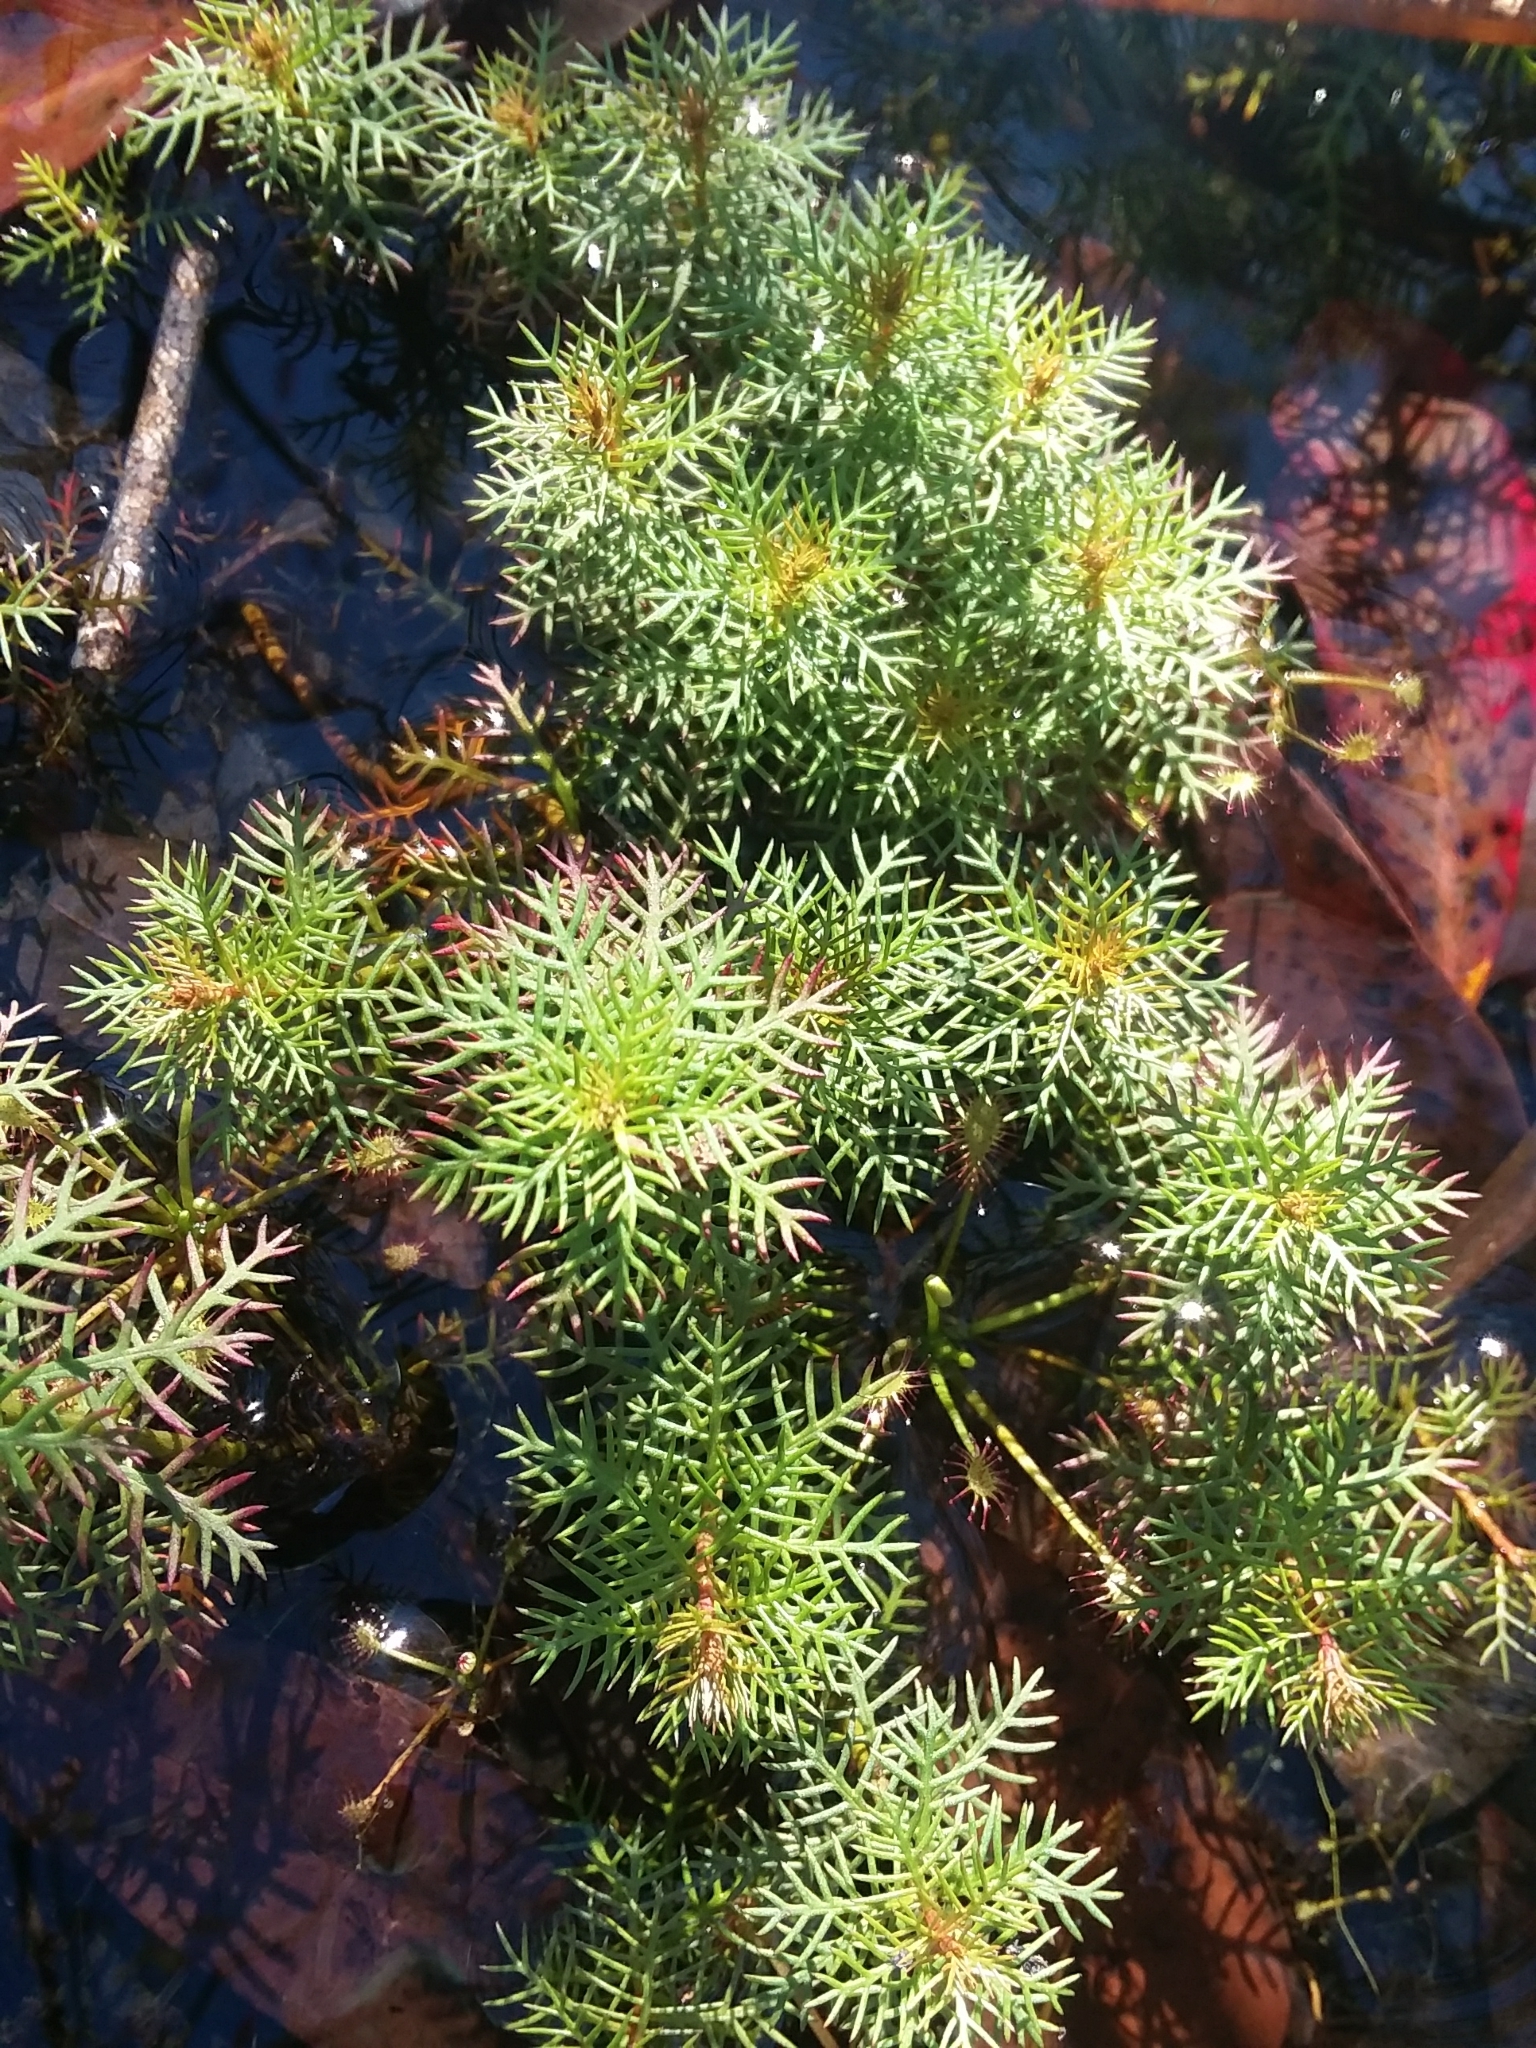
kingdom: Plantae
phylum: Tracheophyta
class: Magnoliopsida
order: Saxifragales
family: Haloragaceae
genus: Proserpinaca
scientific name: Proserpinaca pectinata
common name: Comb-leaved mermaidweed
